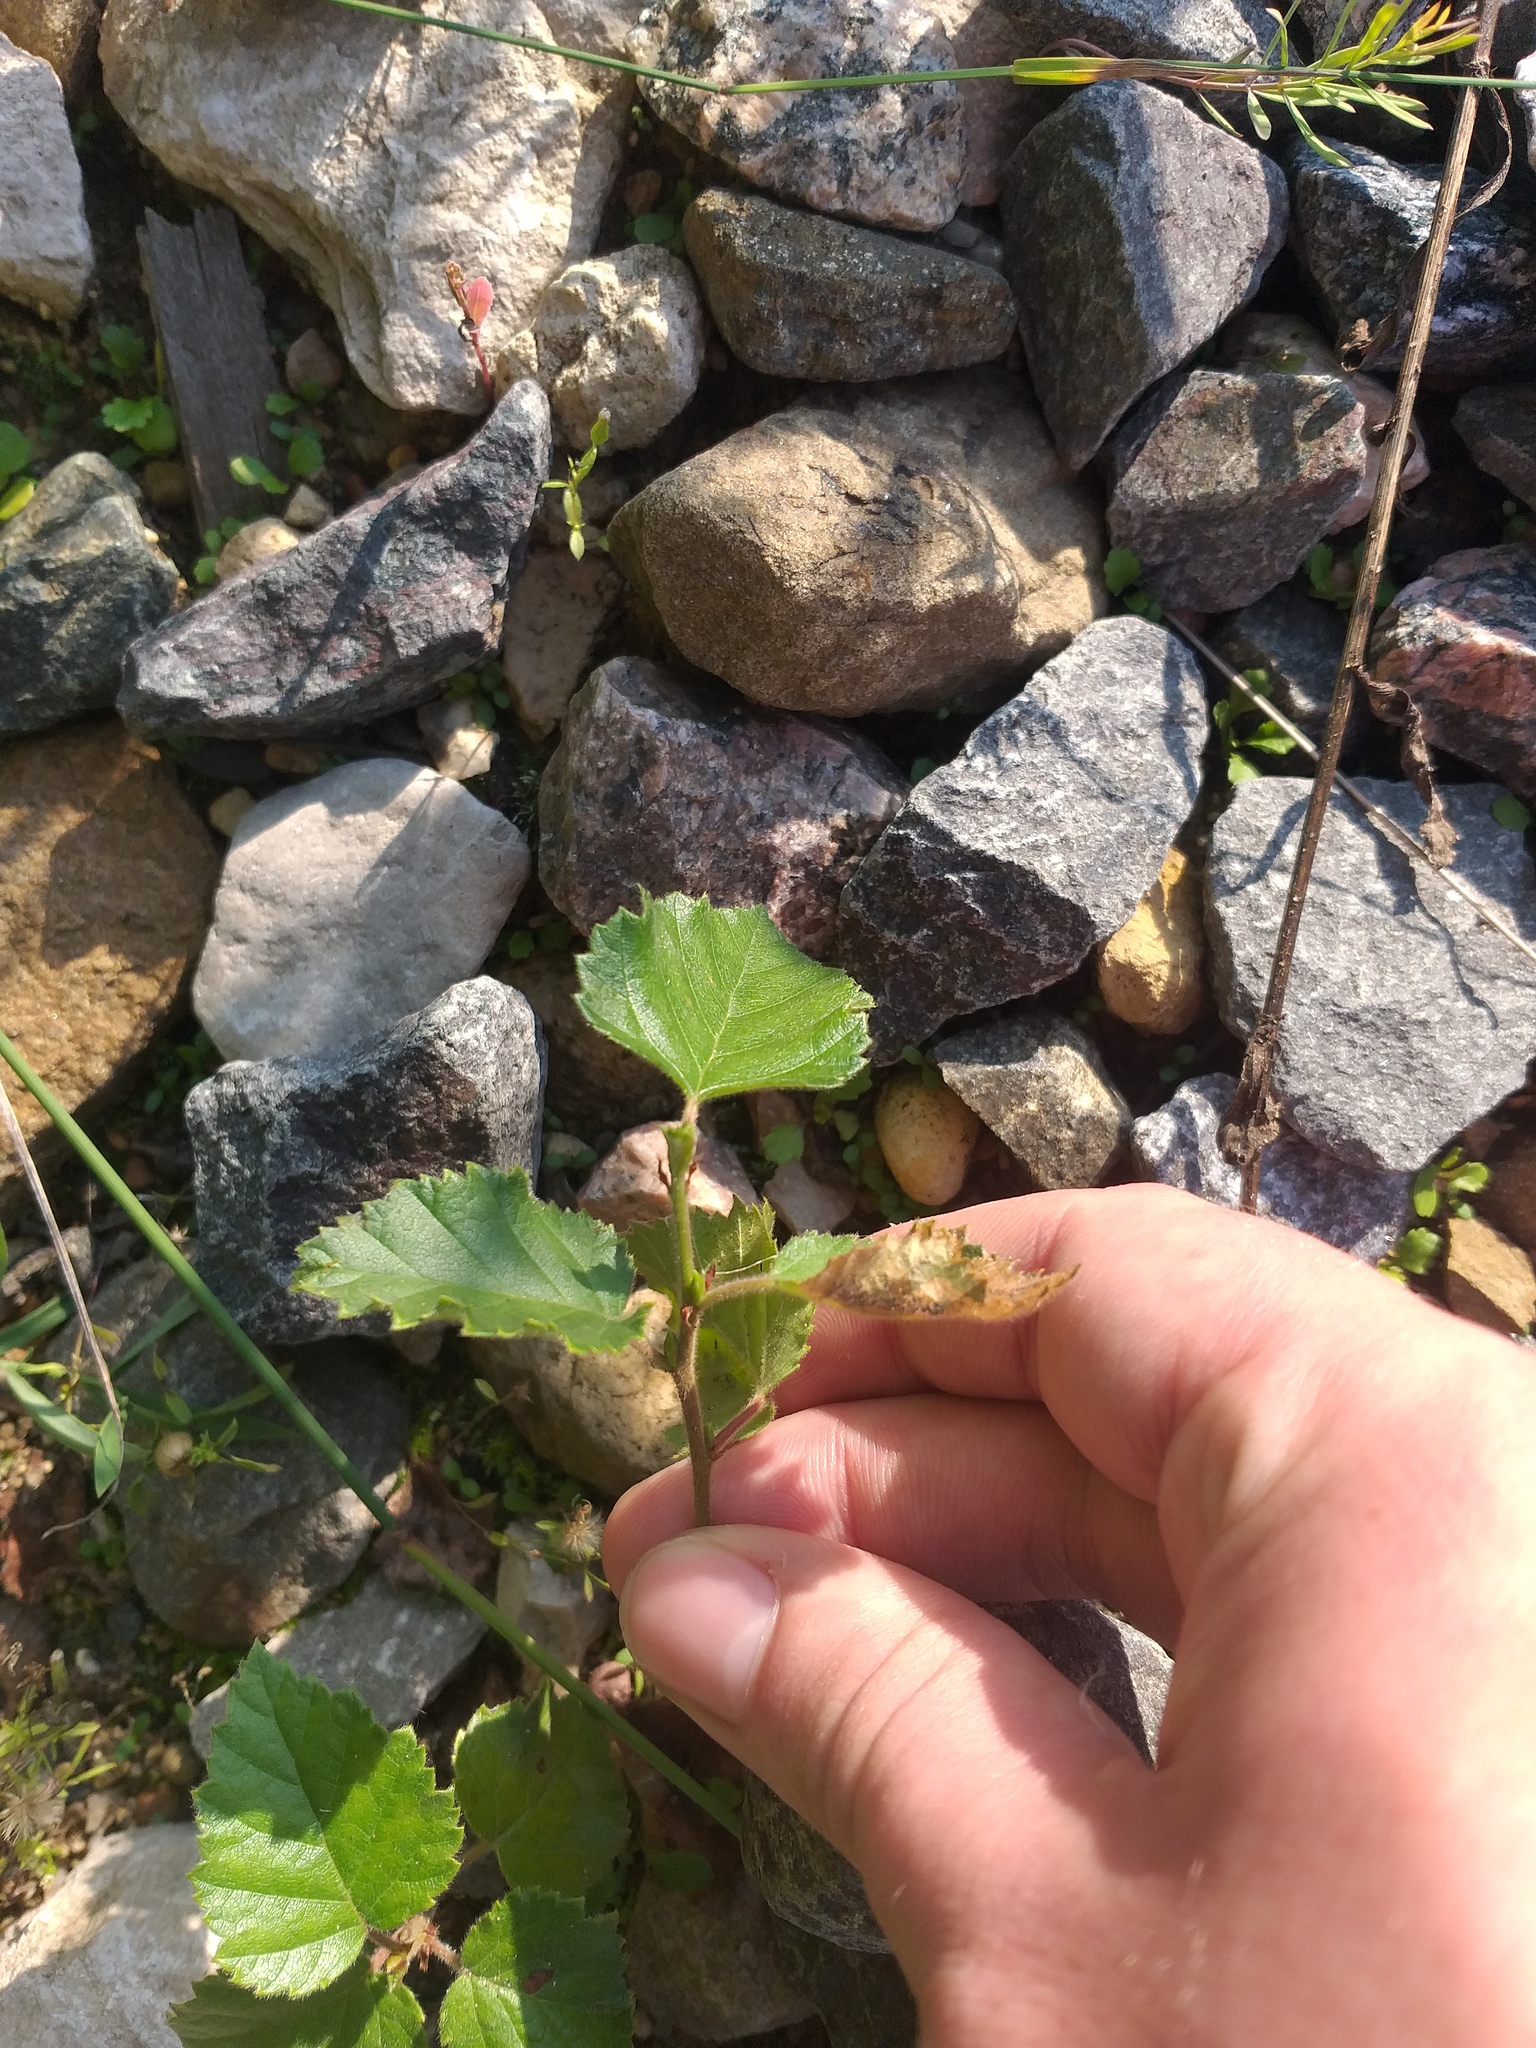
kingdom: Plantae
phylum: Tracheophyta
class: Magnoliopsida
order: Fagales
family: Betulaceae
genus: Betula
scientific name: Betula pubescens
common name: Downy birch
